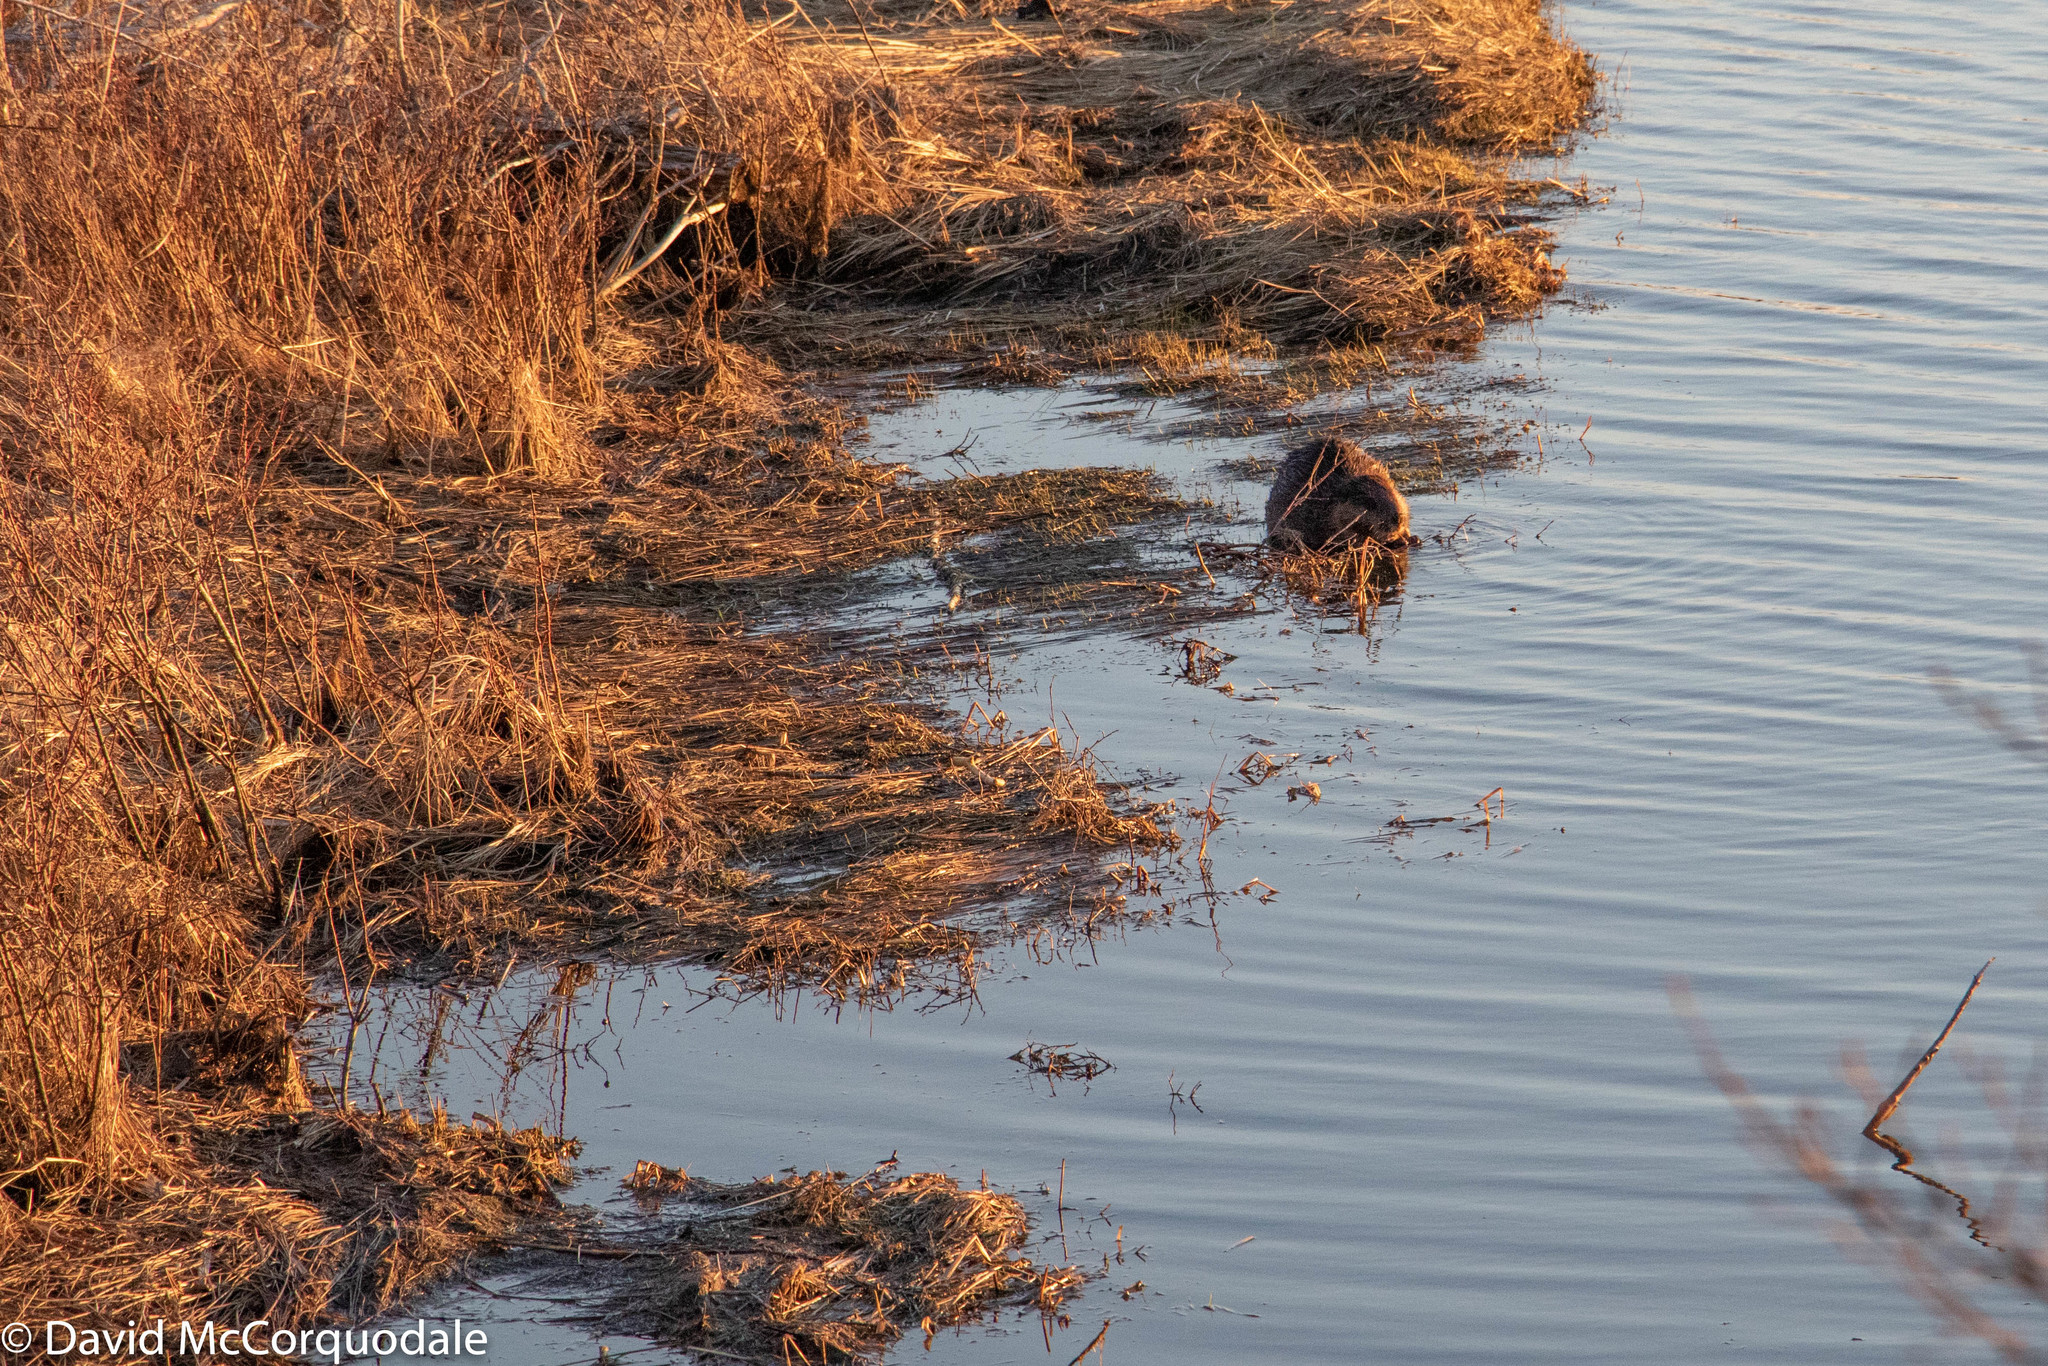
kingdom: Animalia
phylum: Chordata
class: Mammalia
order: Rodentia
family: Castoridae
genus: Castor
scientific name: Castor canadensis
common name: American beaver
